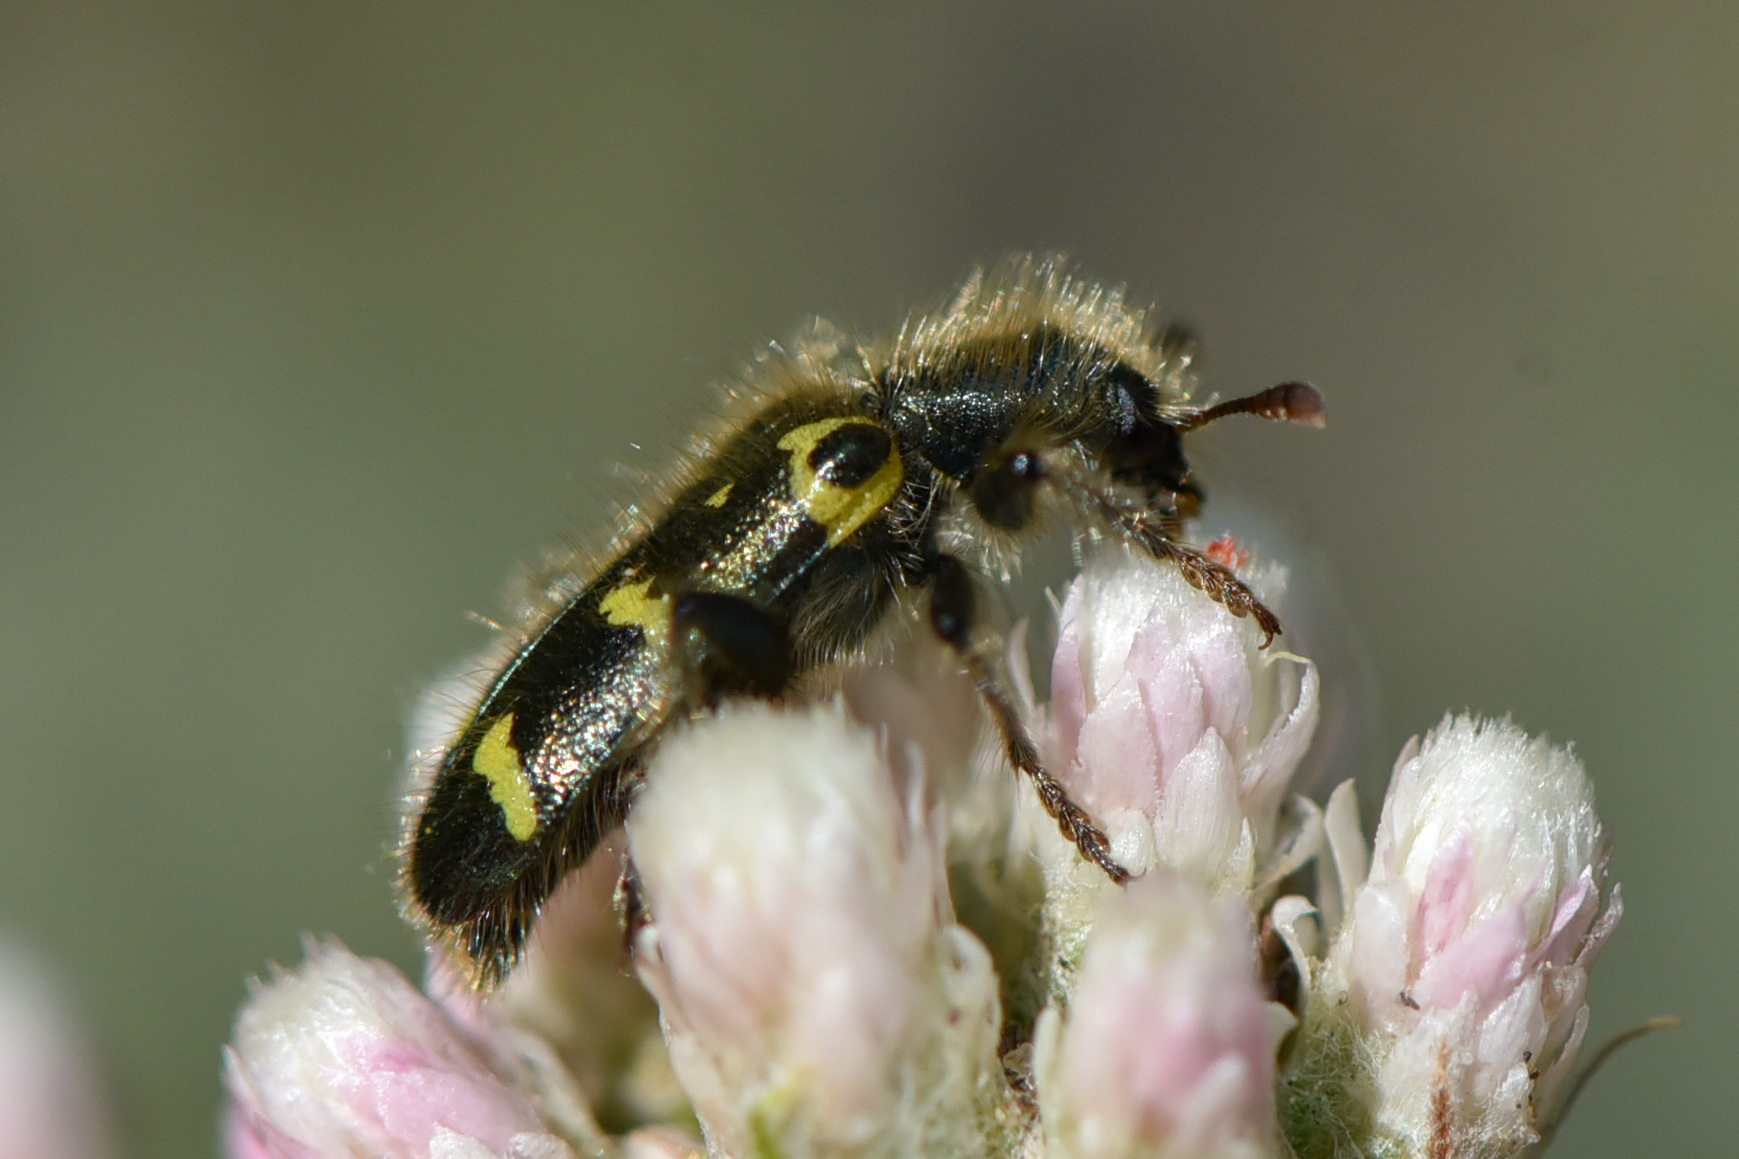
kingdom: Animalia
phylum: Arthropoda
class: Insecta
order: Coleoptera
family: Cleridae
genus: Trichodes
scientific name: Trichodes ornatus
